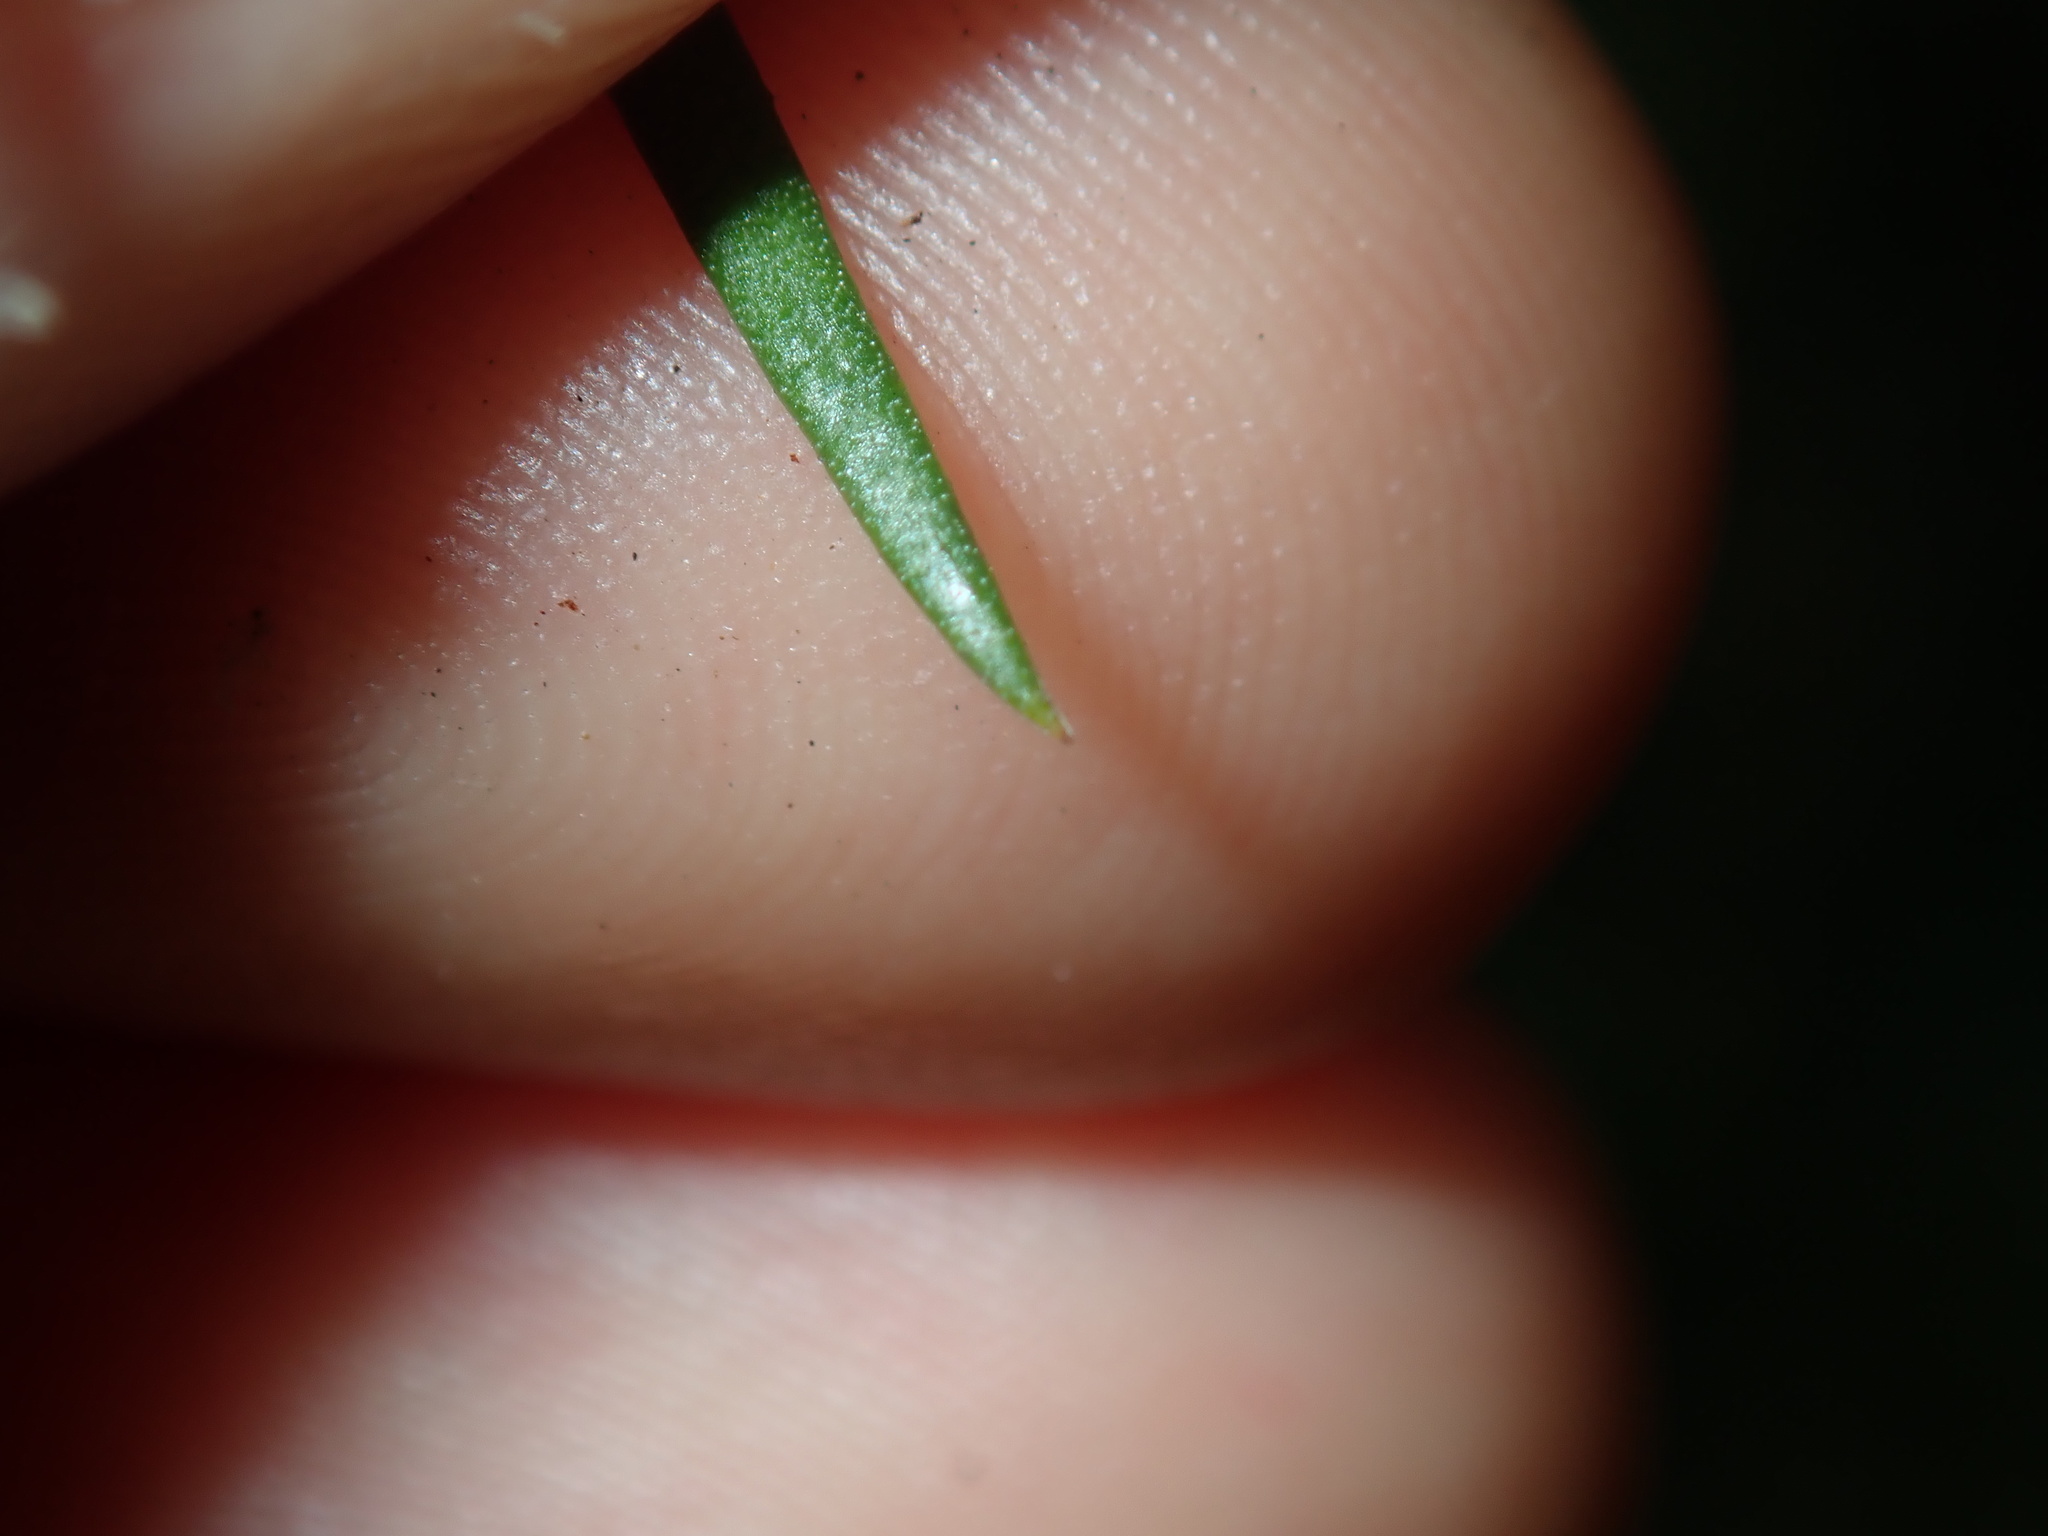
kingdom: Plantae
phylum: Tracheophyta
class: Magnoliopsida
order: Proteales
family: Proteaceae
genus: Persoonia
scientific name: Persoonia linearis
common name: Narrow-leaf geebung
